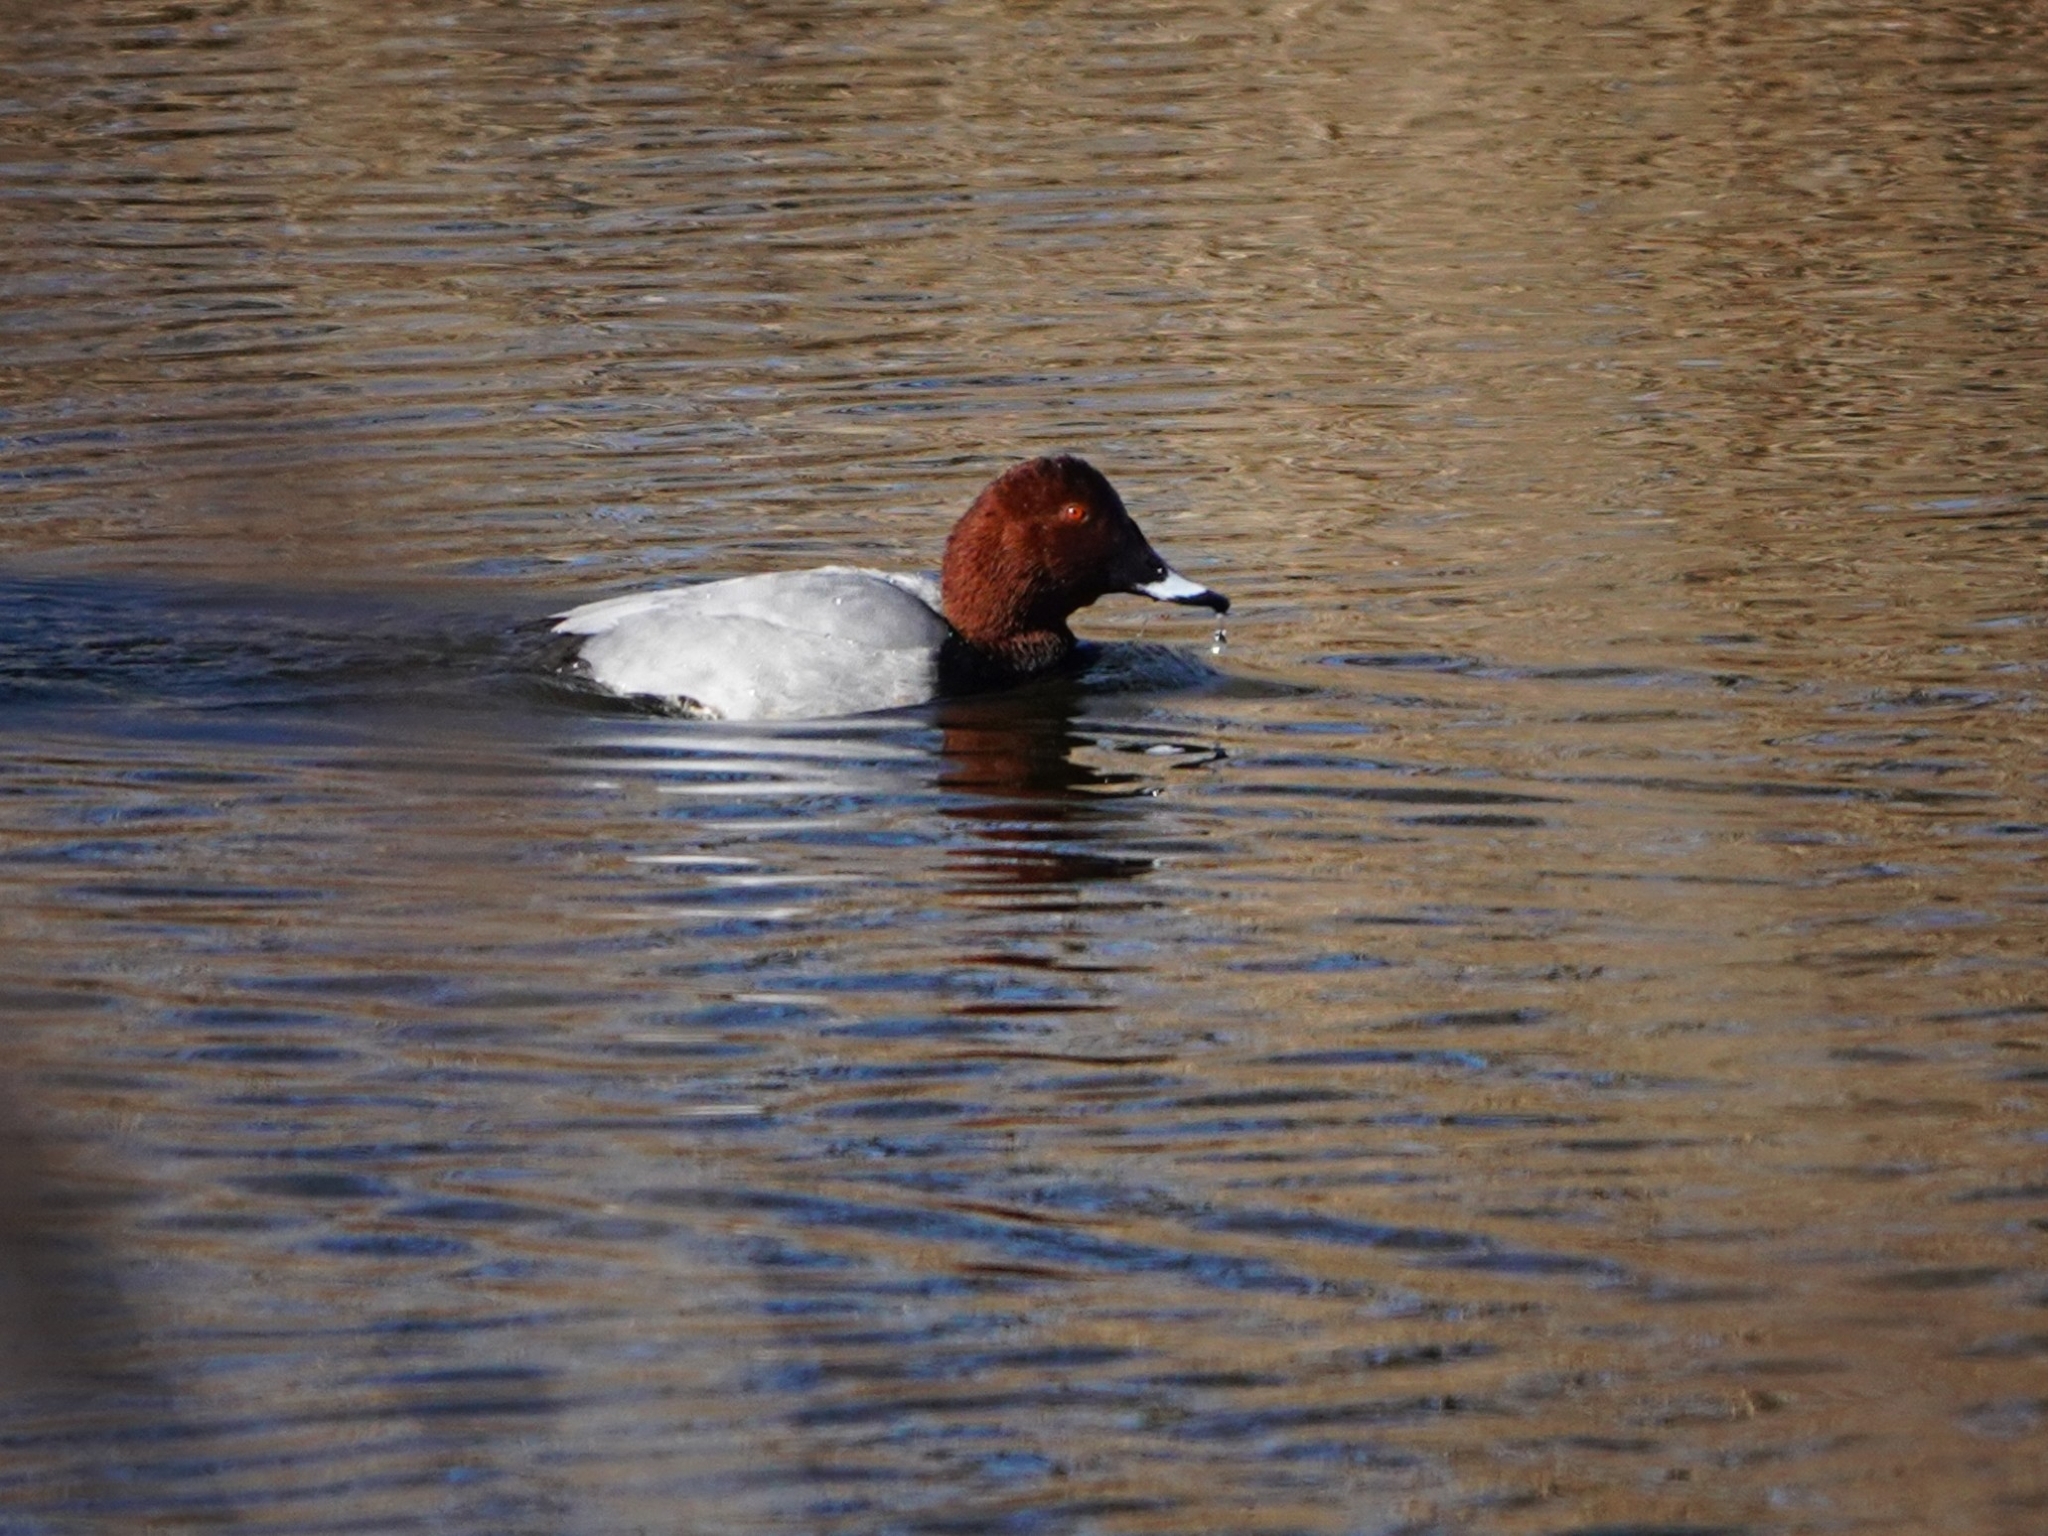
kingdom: Animalia
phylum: Chordata
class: Aves
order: Anseriformes
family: Anatidae
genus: Aythya
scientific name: Aythya ferina
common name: Common pochard
